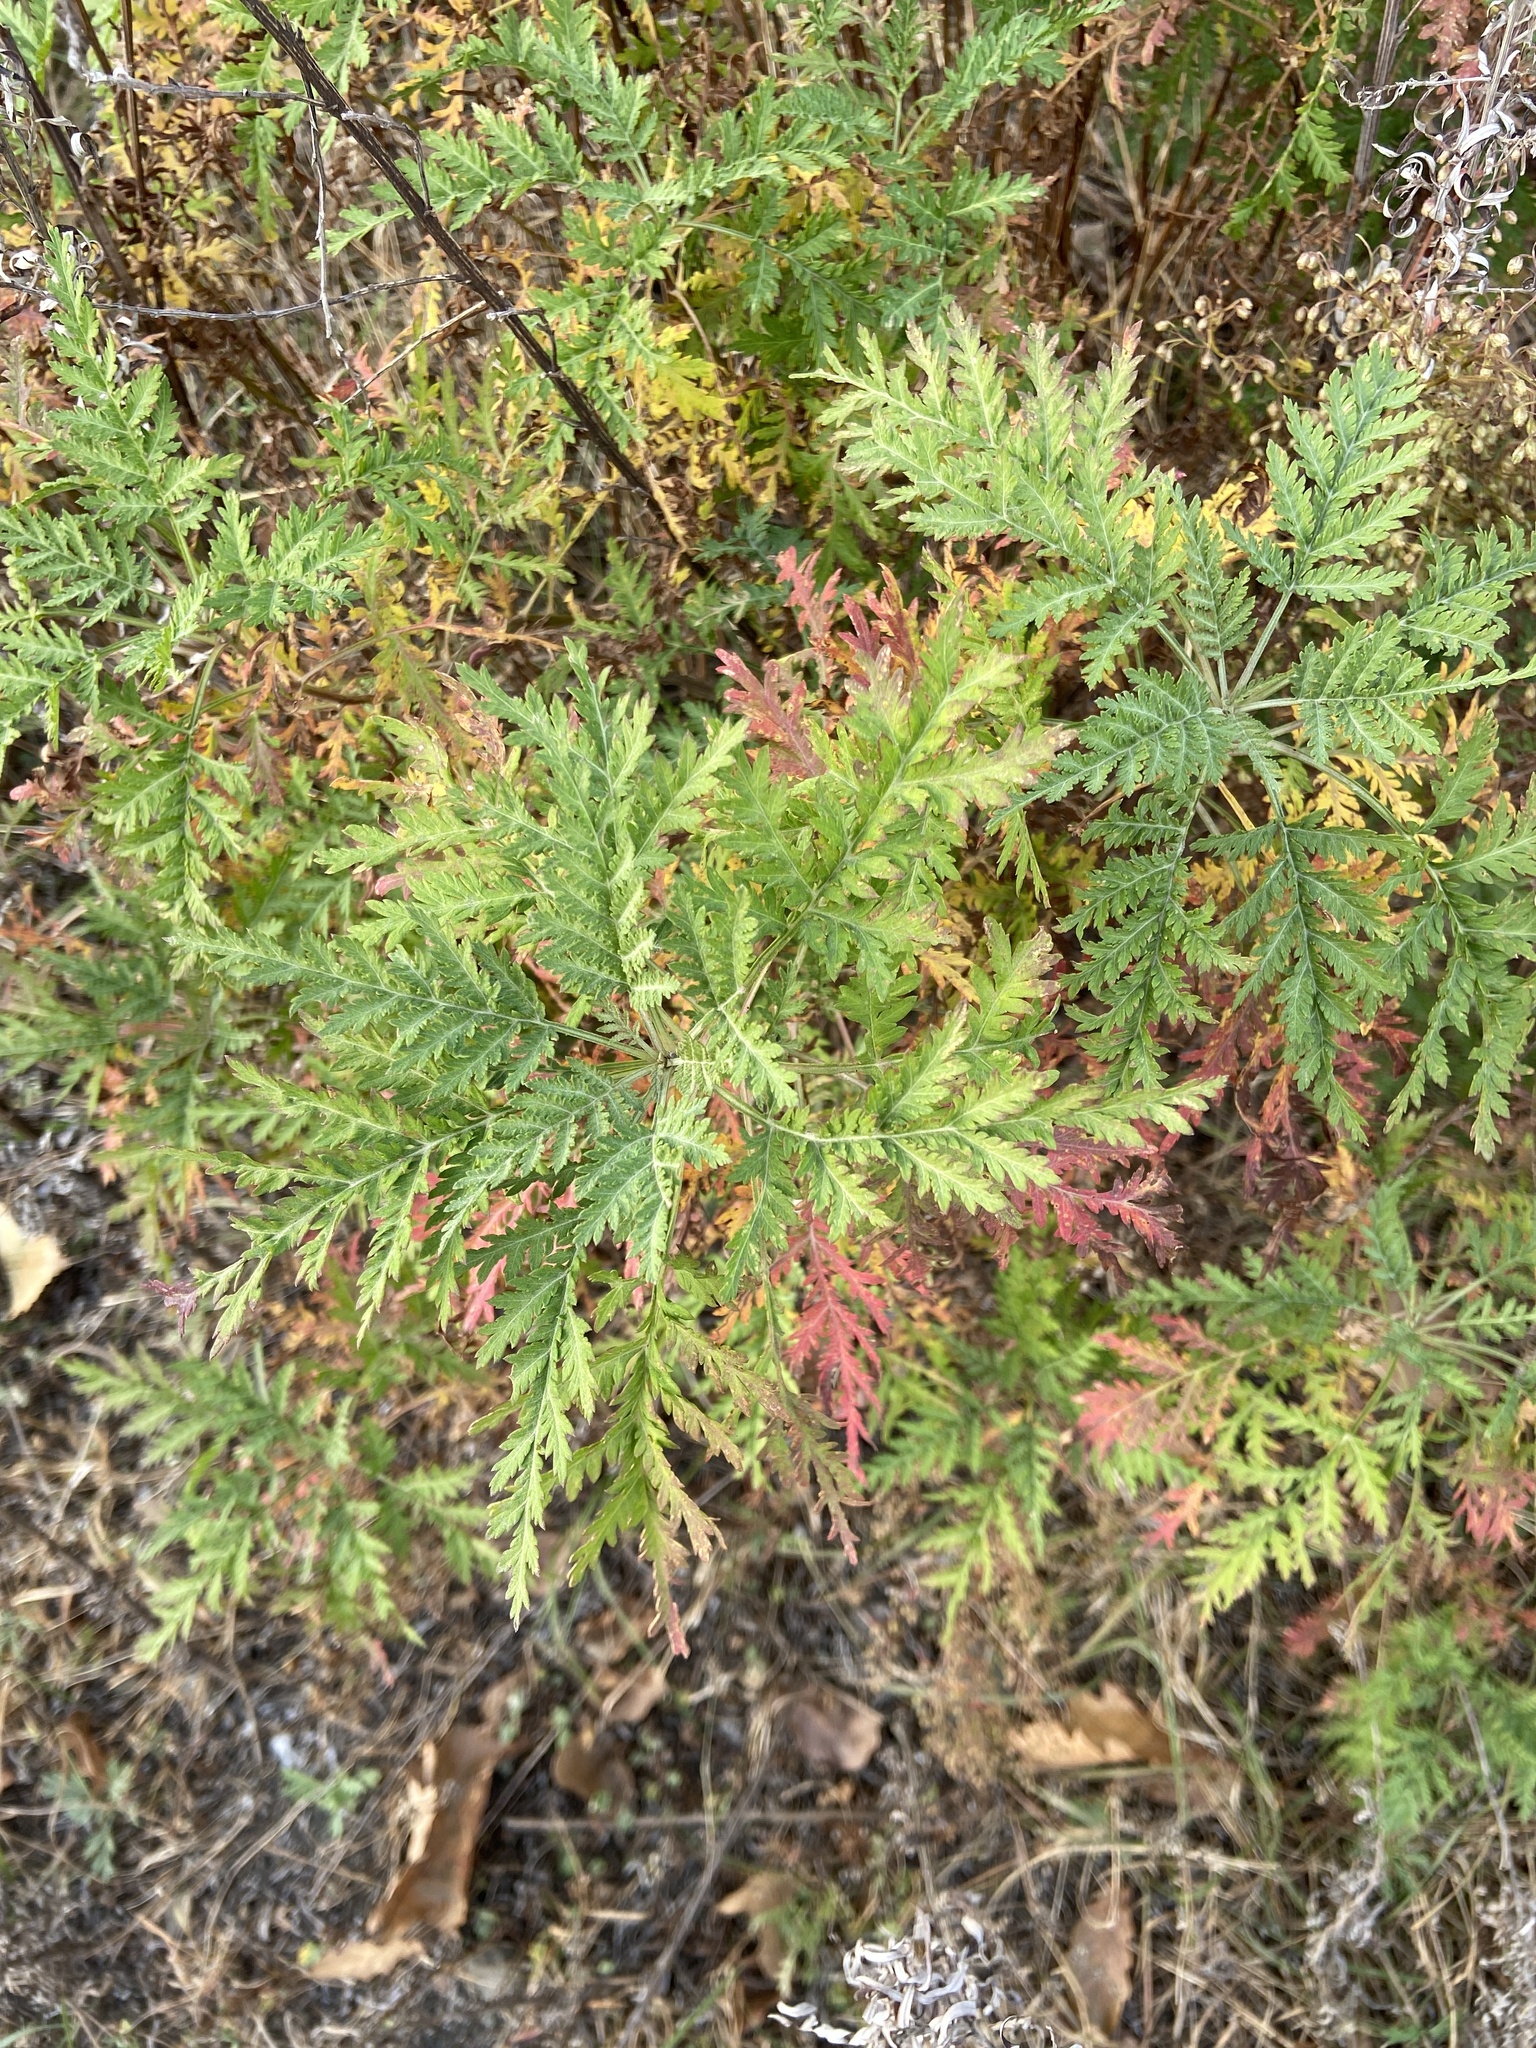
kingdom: Plantae
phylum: Tracheophyta
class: Magnoliopsida
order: Asterales
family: Asteraceae
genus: Artemisia
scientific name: Artemisia gmelinii
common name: Gmelin's wormwood
